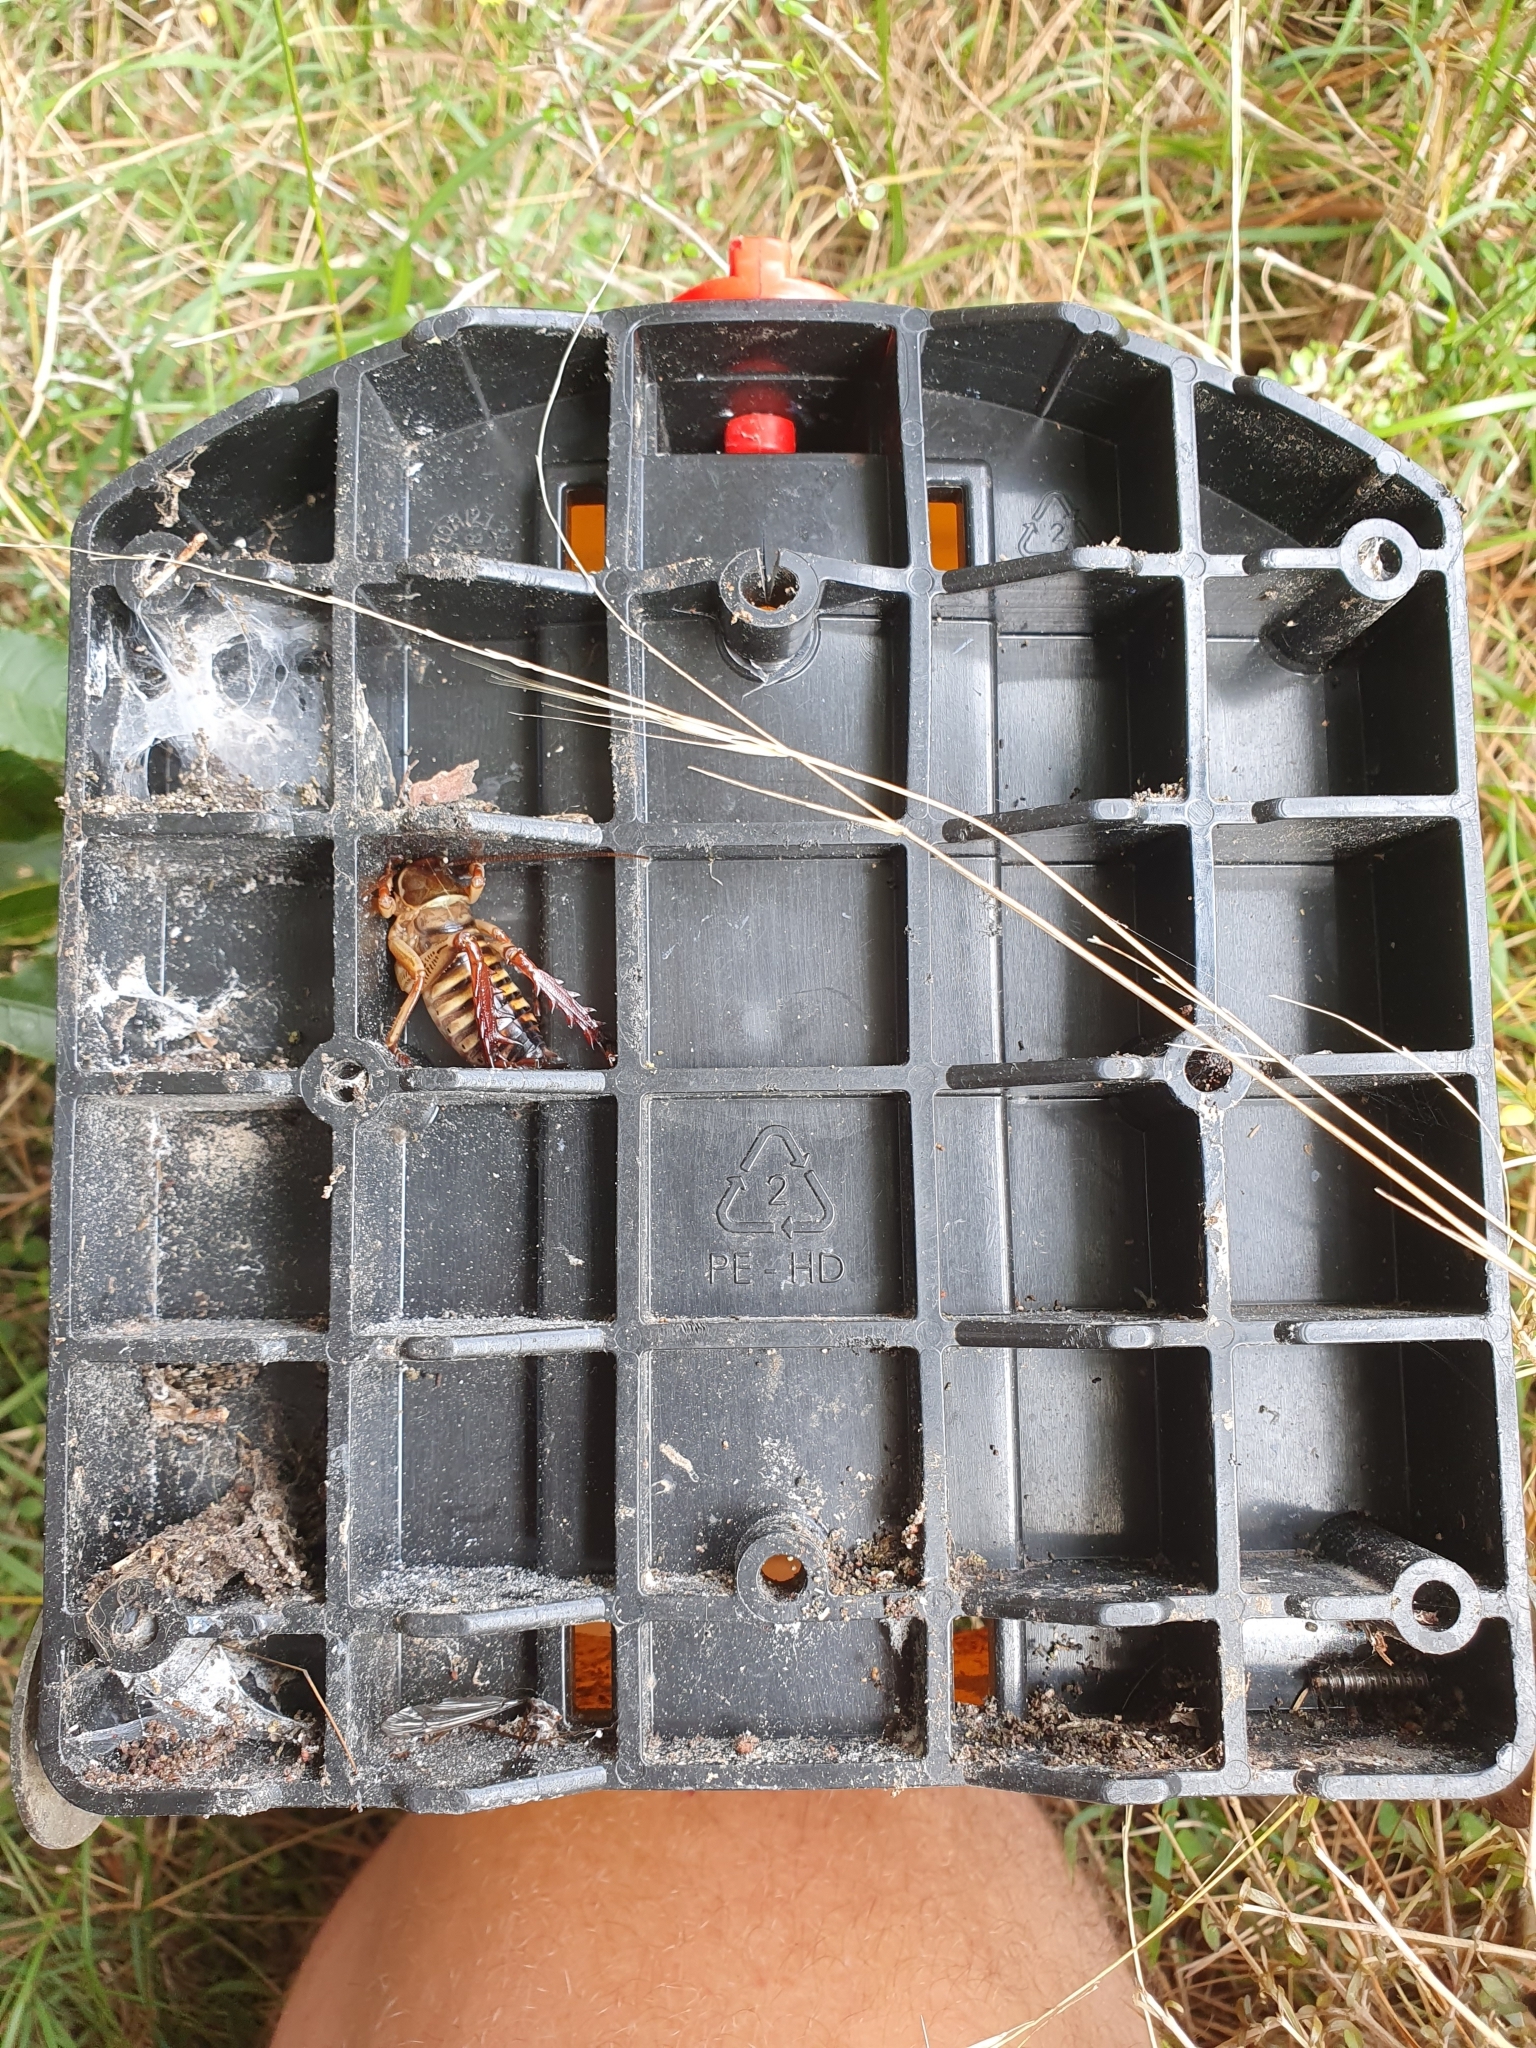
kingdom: Animalia
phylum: Arthropoda
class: Insecta
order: Orthoptera
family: Anostostomatidae
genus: Hemideina
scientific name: Hemideina crassidens
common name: Wellington tree weta
